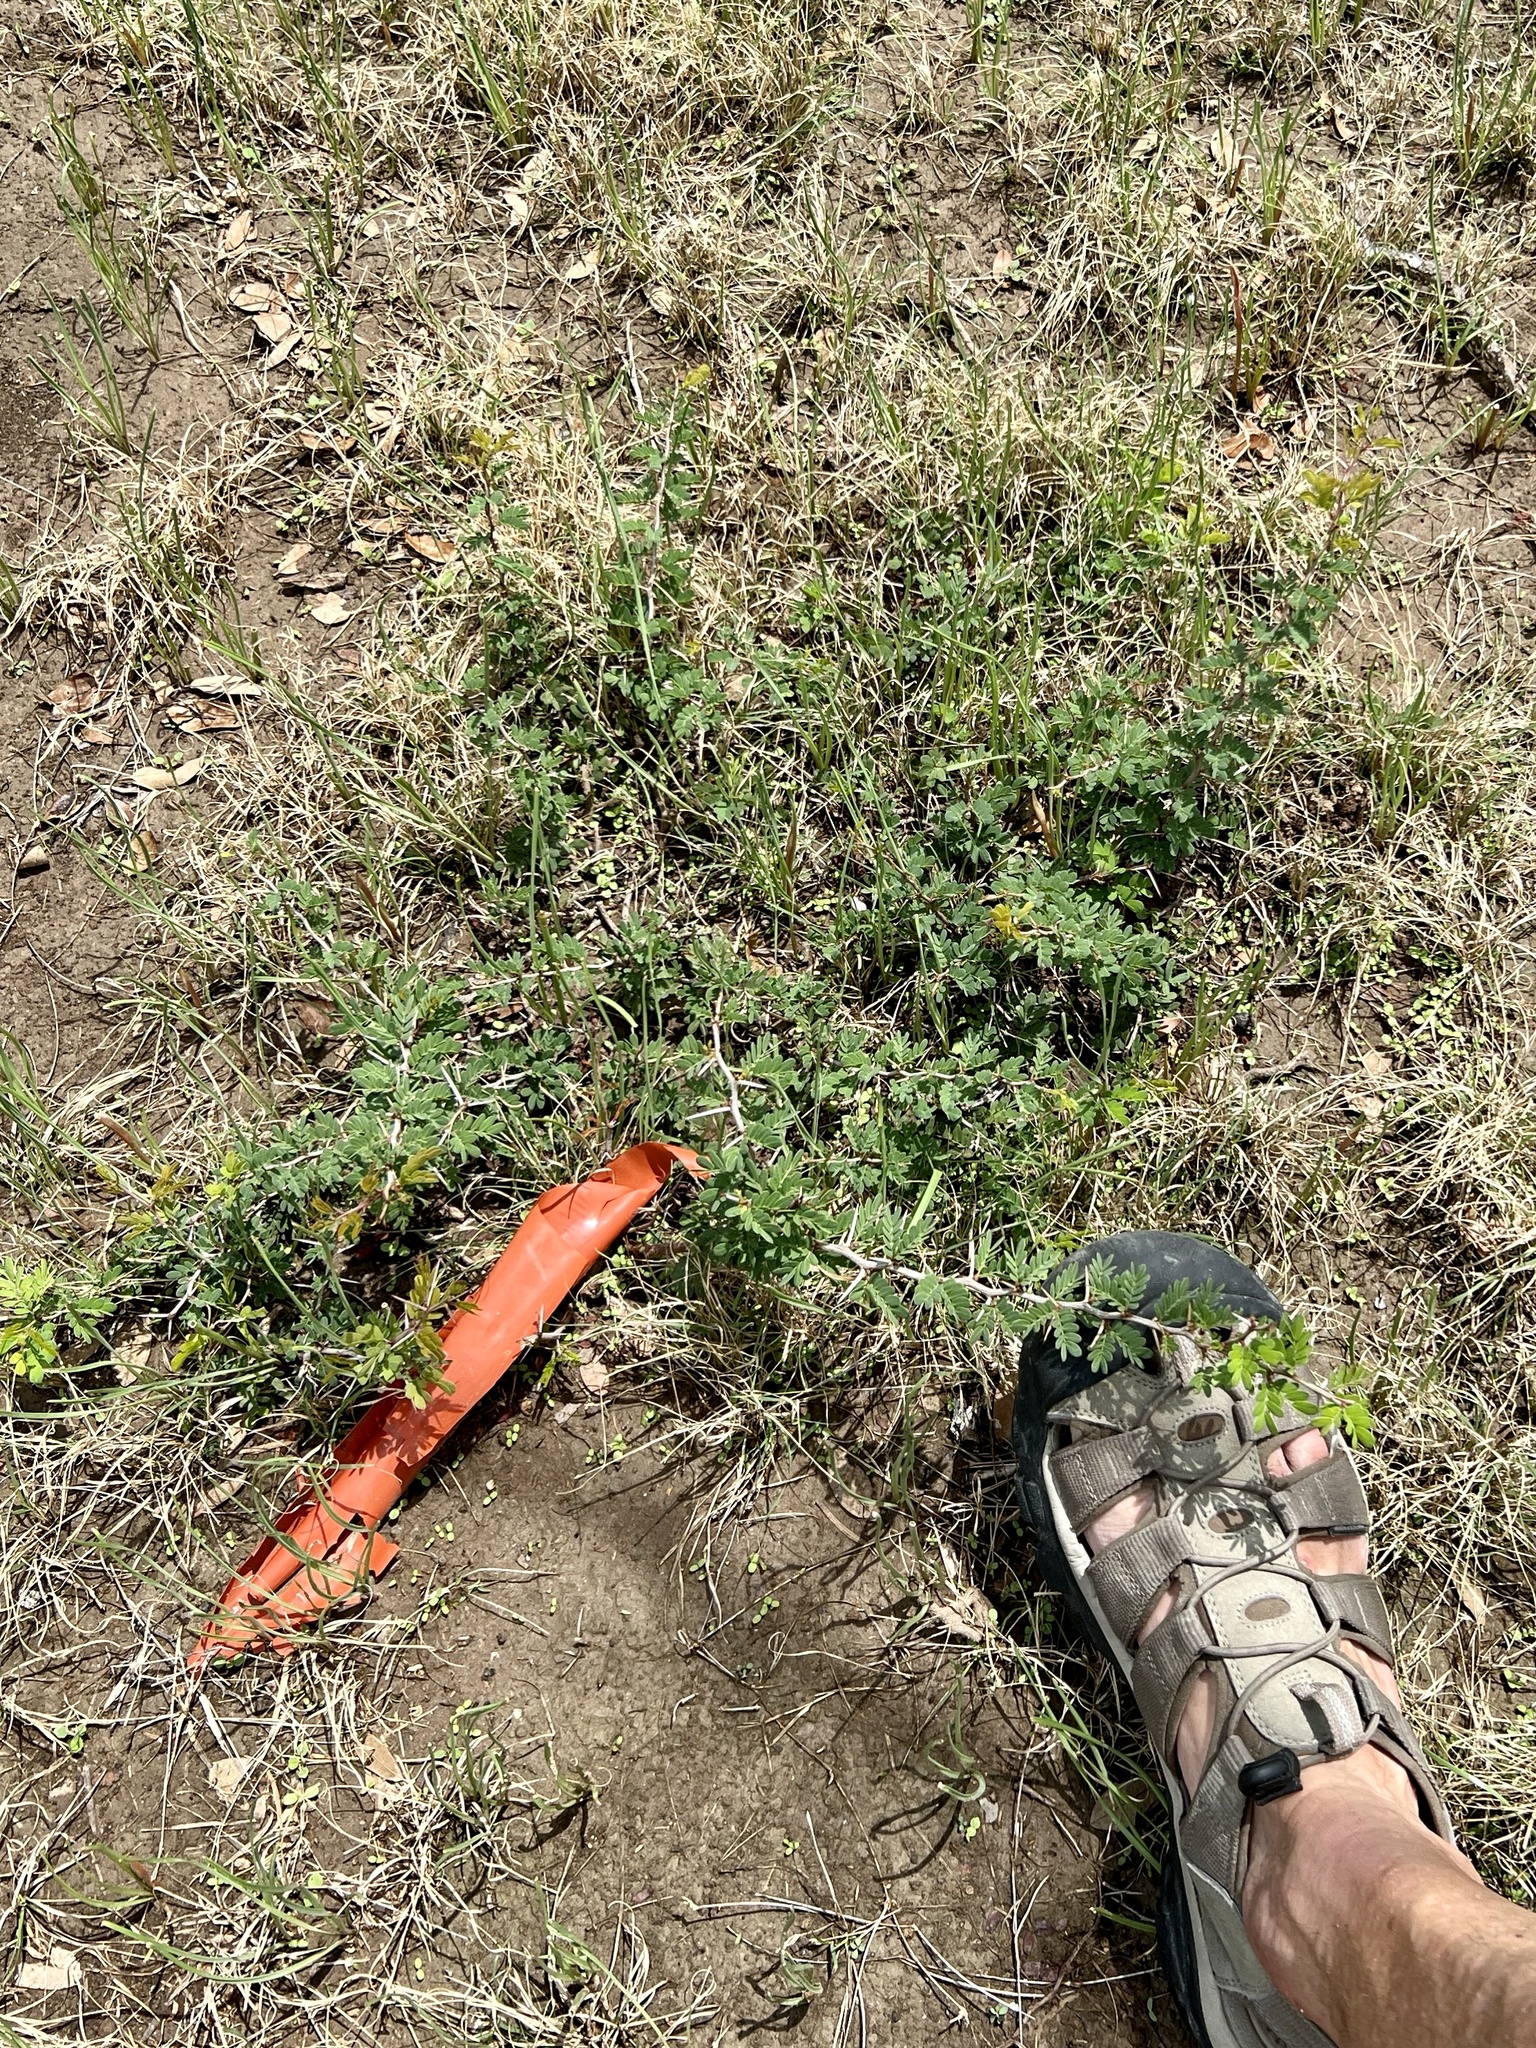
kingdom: Plantae
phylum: Tracheophyta
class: Magnoliopsida
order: Fabales
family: Fabaceae
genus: Vachellia
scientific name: Vachellia farnesiana
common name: Sweet acacia
